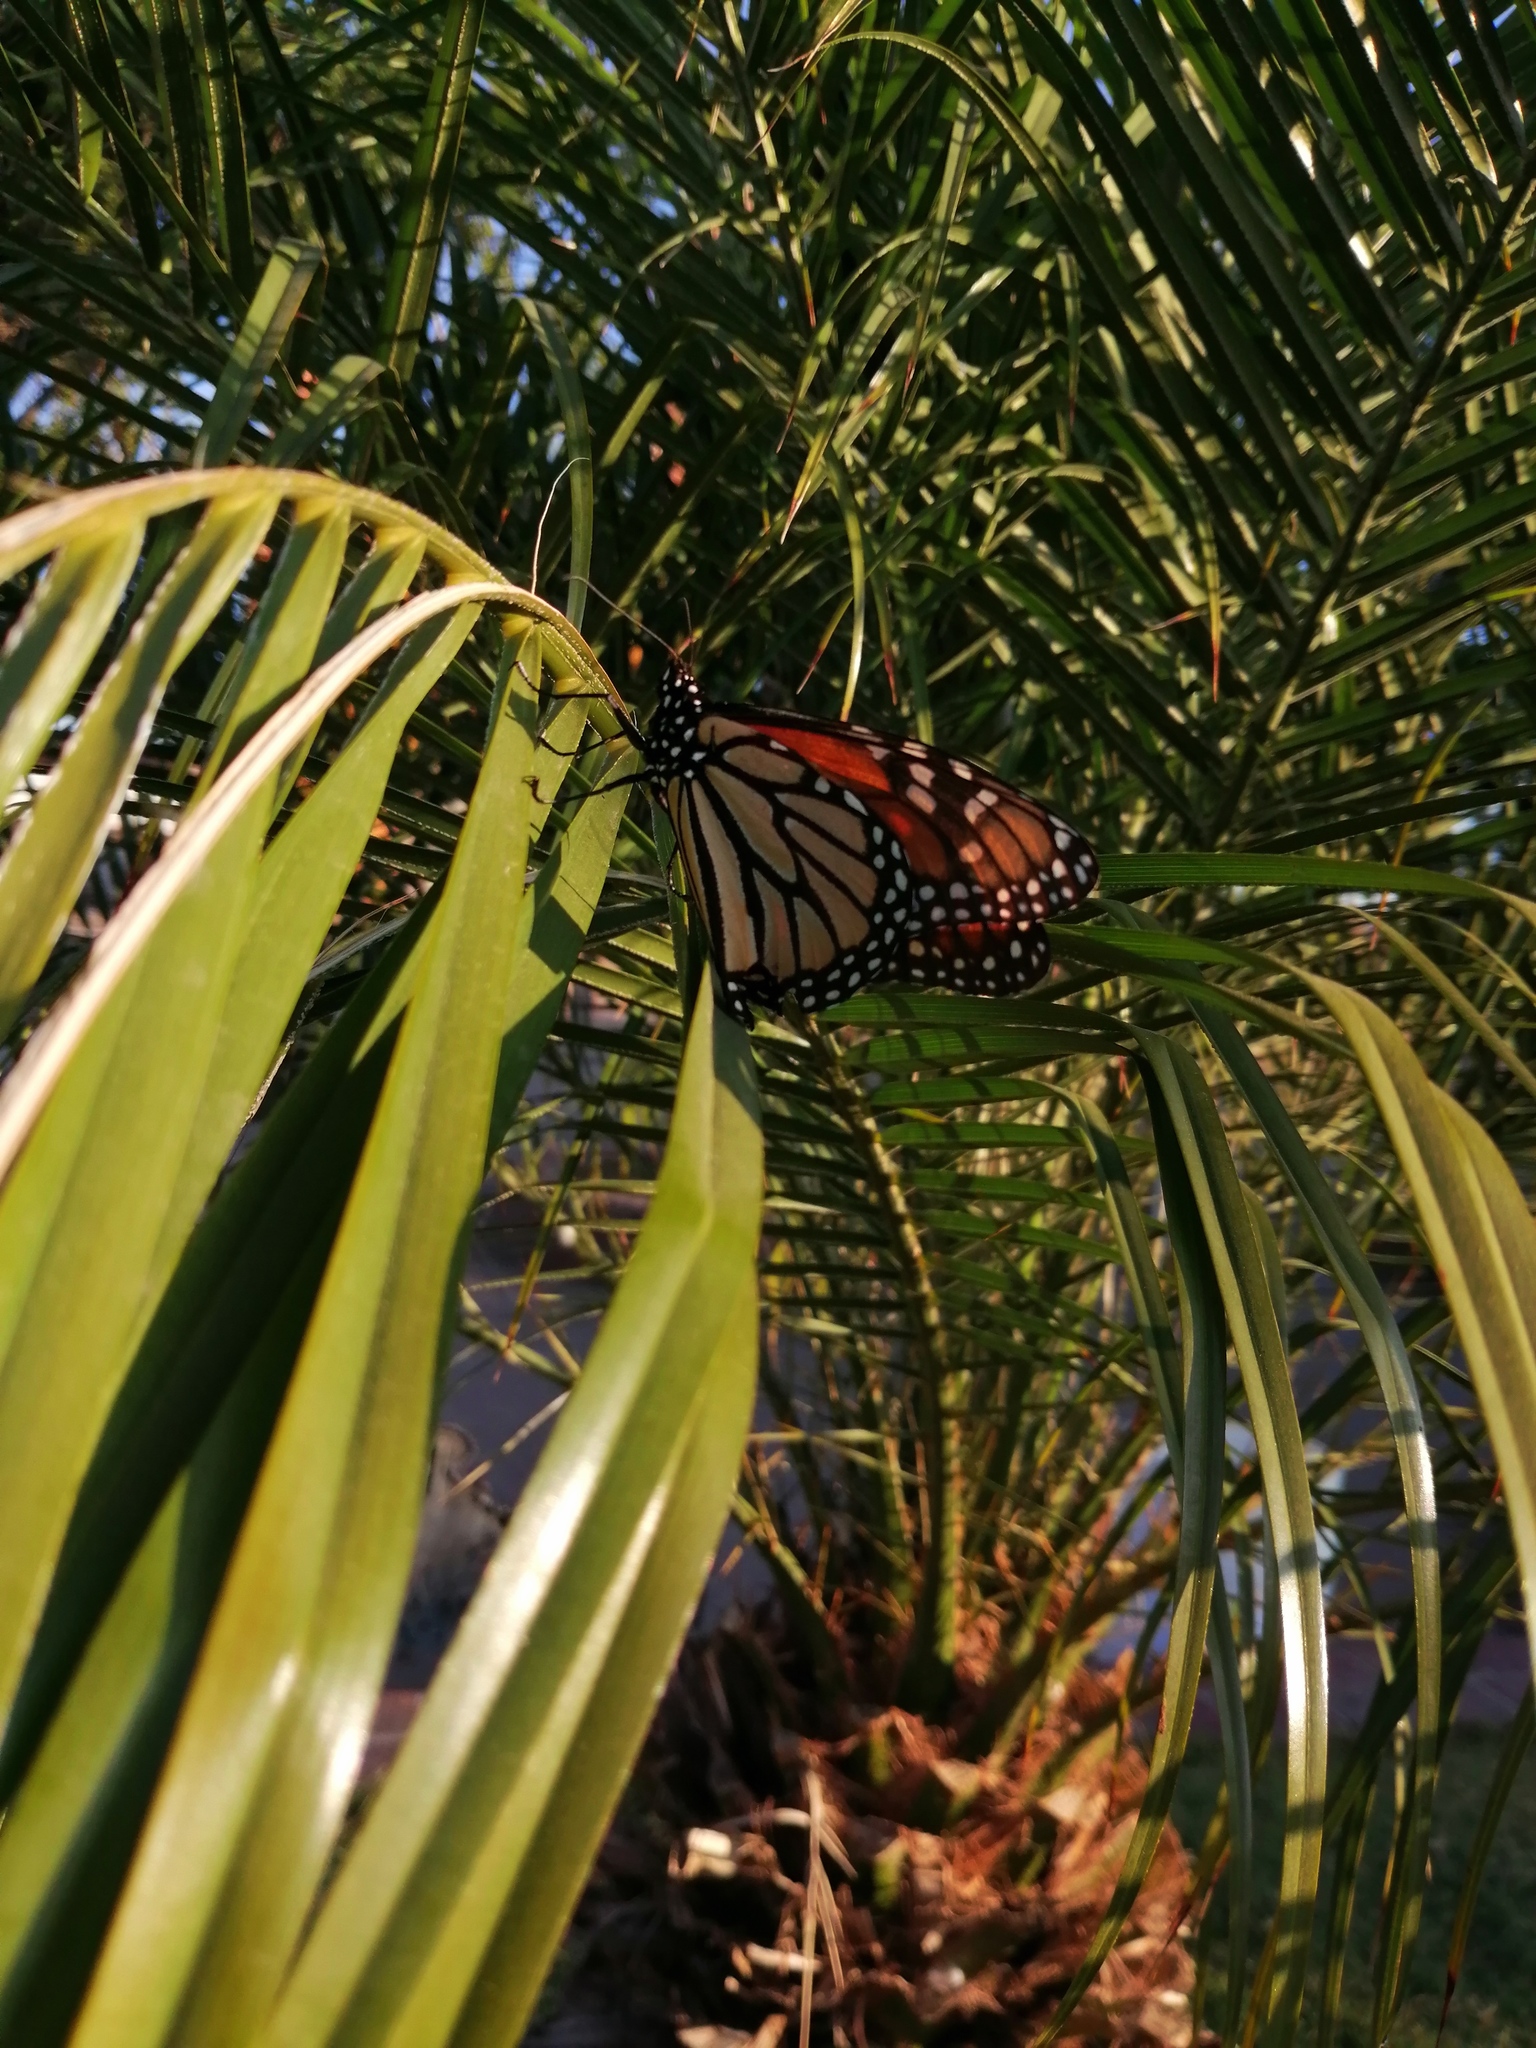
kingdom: Animalia
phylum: Arthropoda
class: Insecta
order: Lepidoptera
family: Nymphalidae
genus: Danaus
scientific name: Danaus plexippus
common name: Monarch
